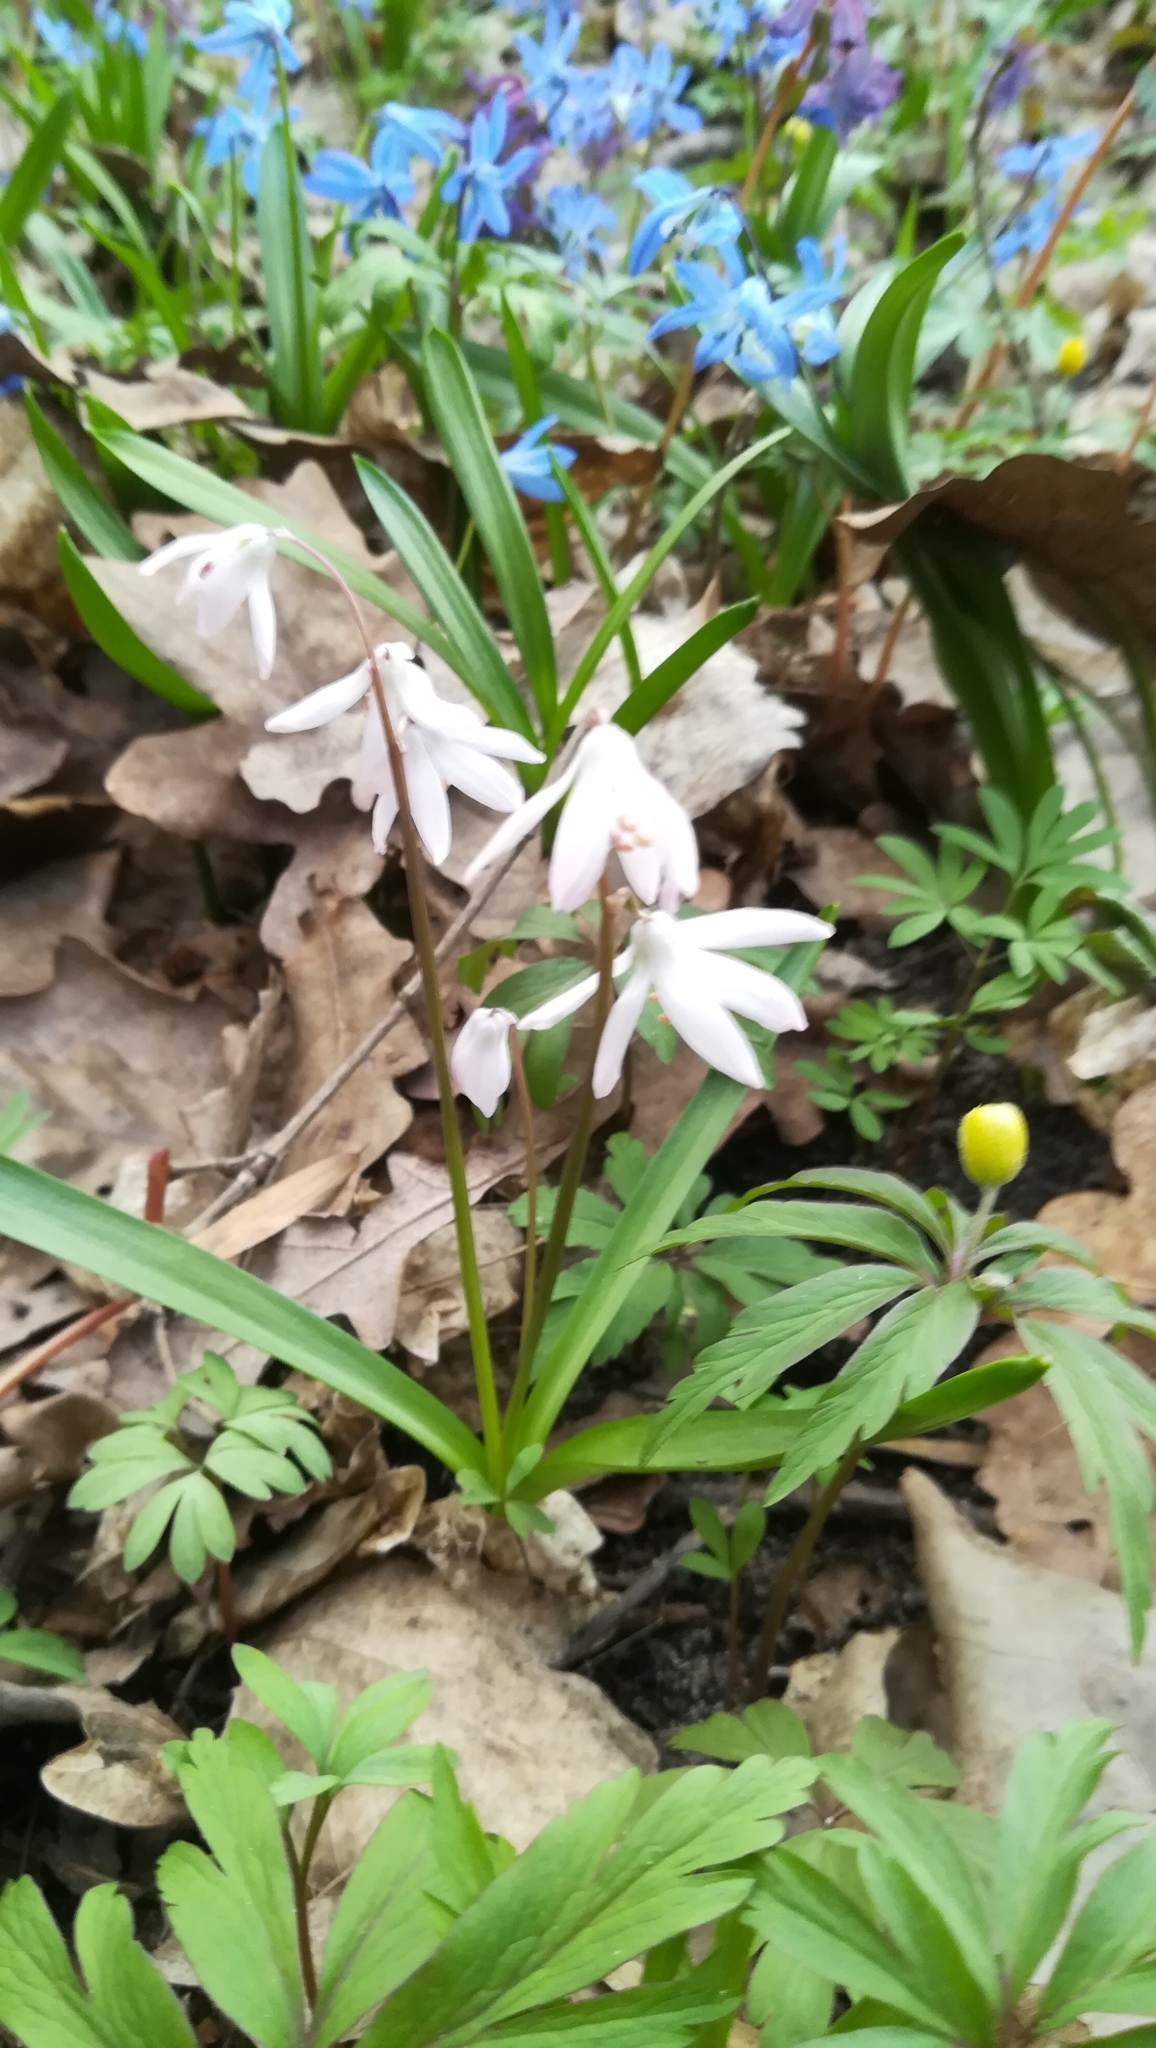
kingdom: Plantae
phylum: Tracheophyta
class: Liliopsida
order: Asparagales
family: Asparagaceae
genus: Scilla
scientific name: Scilla siberica
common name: Siberian squill
